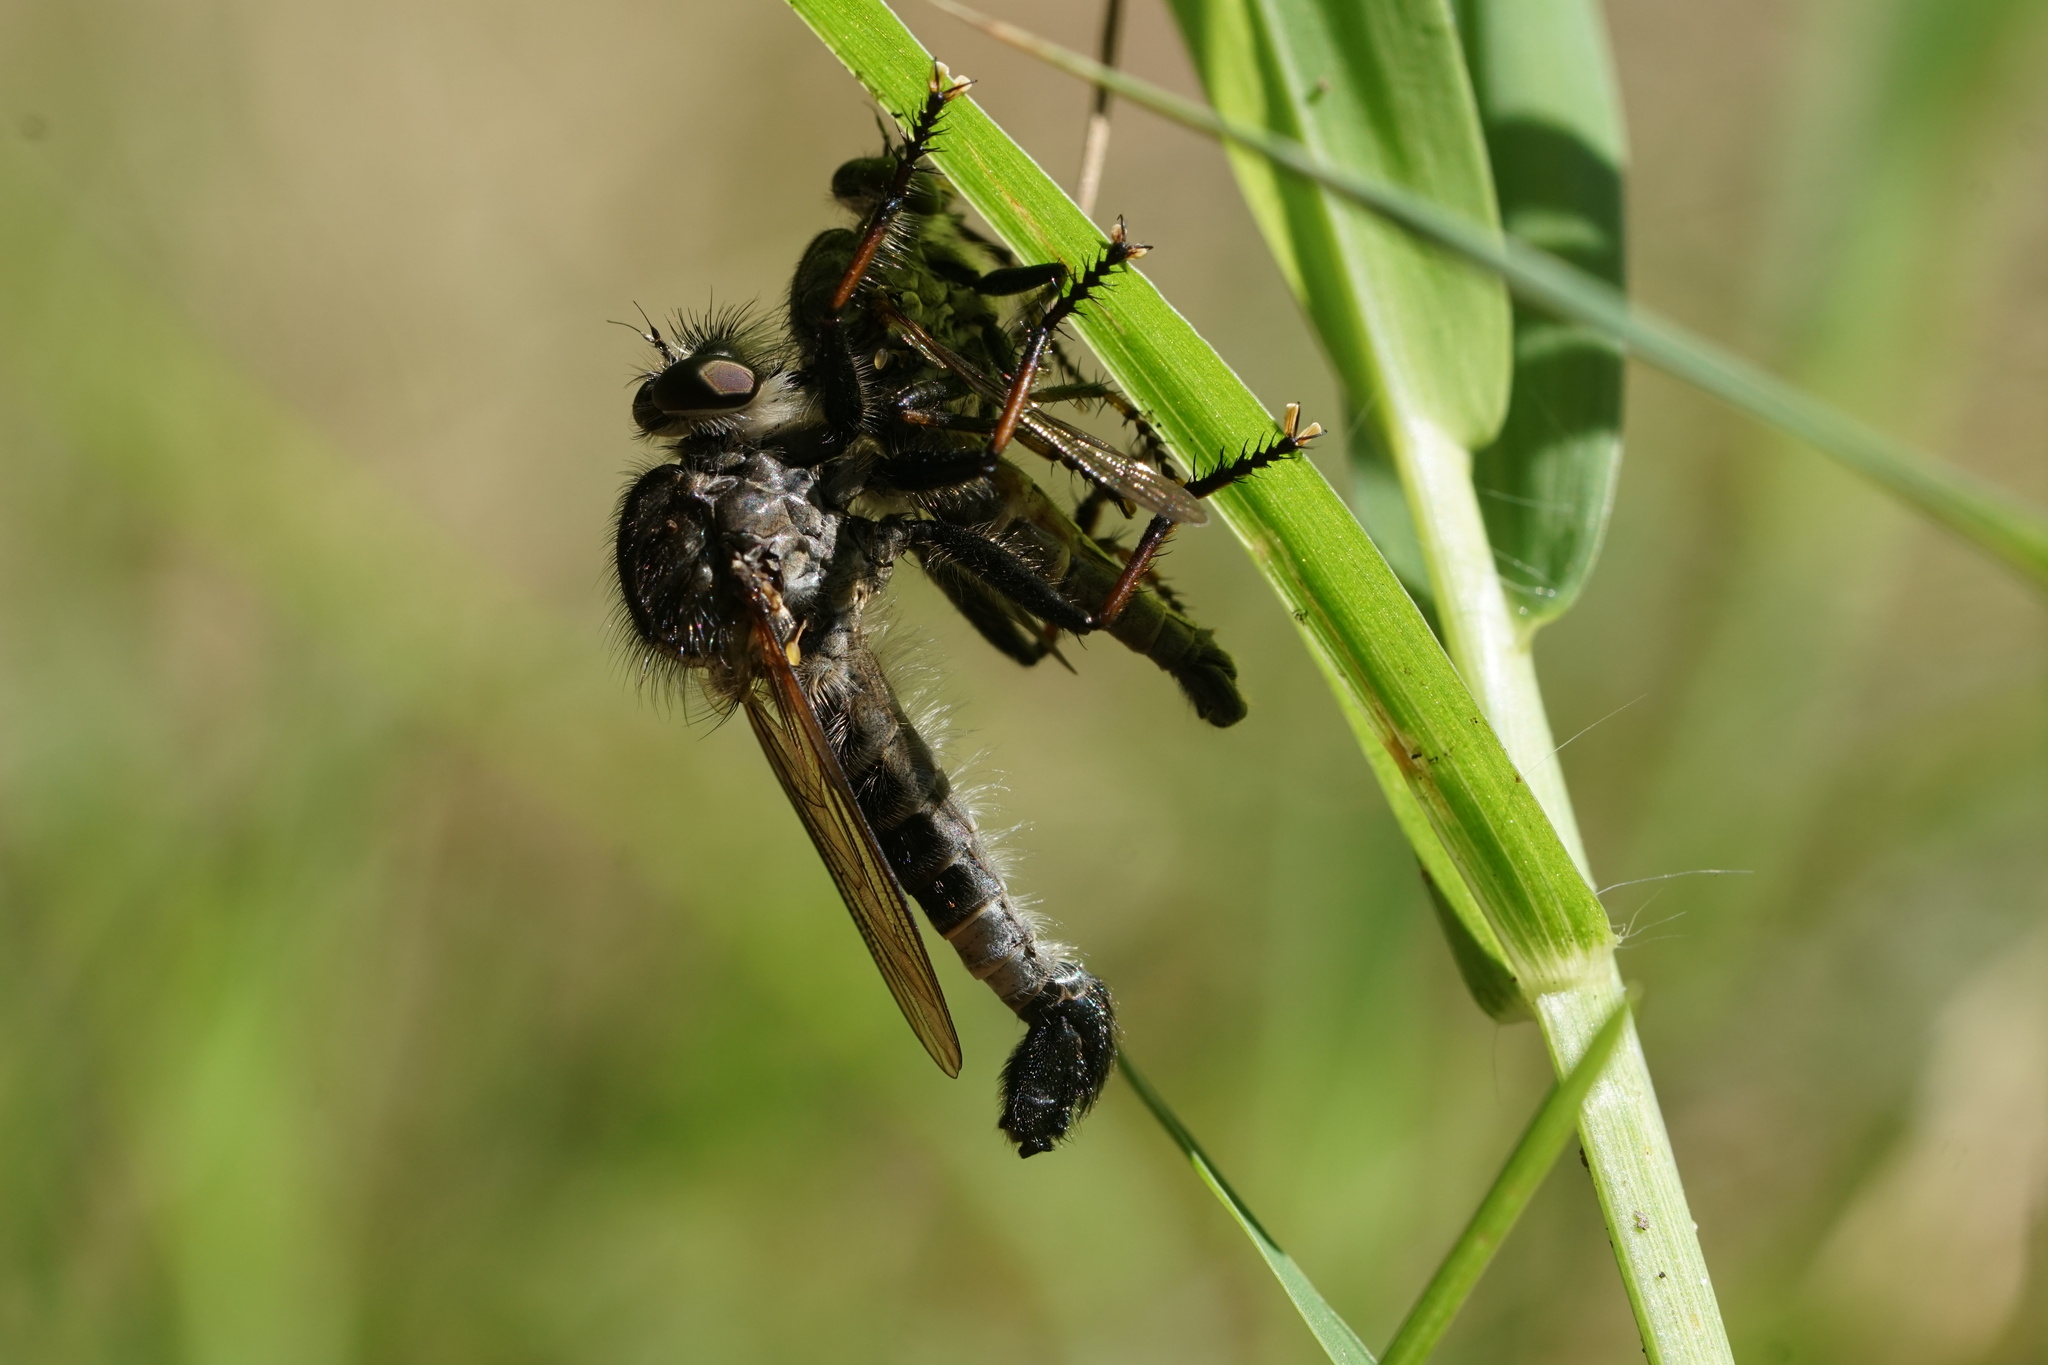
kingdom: Animalia
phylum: Arthropoda
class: Insecta
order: Diptera
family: Asilidae
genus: Efferia
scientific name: Efferia aestuans
